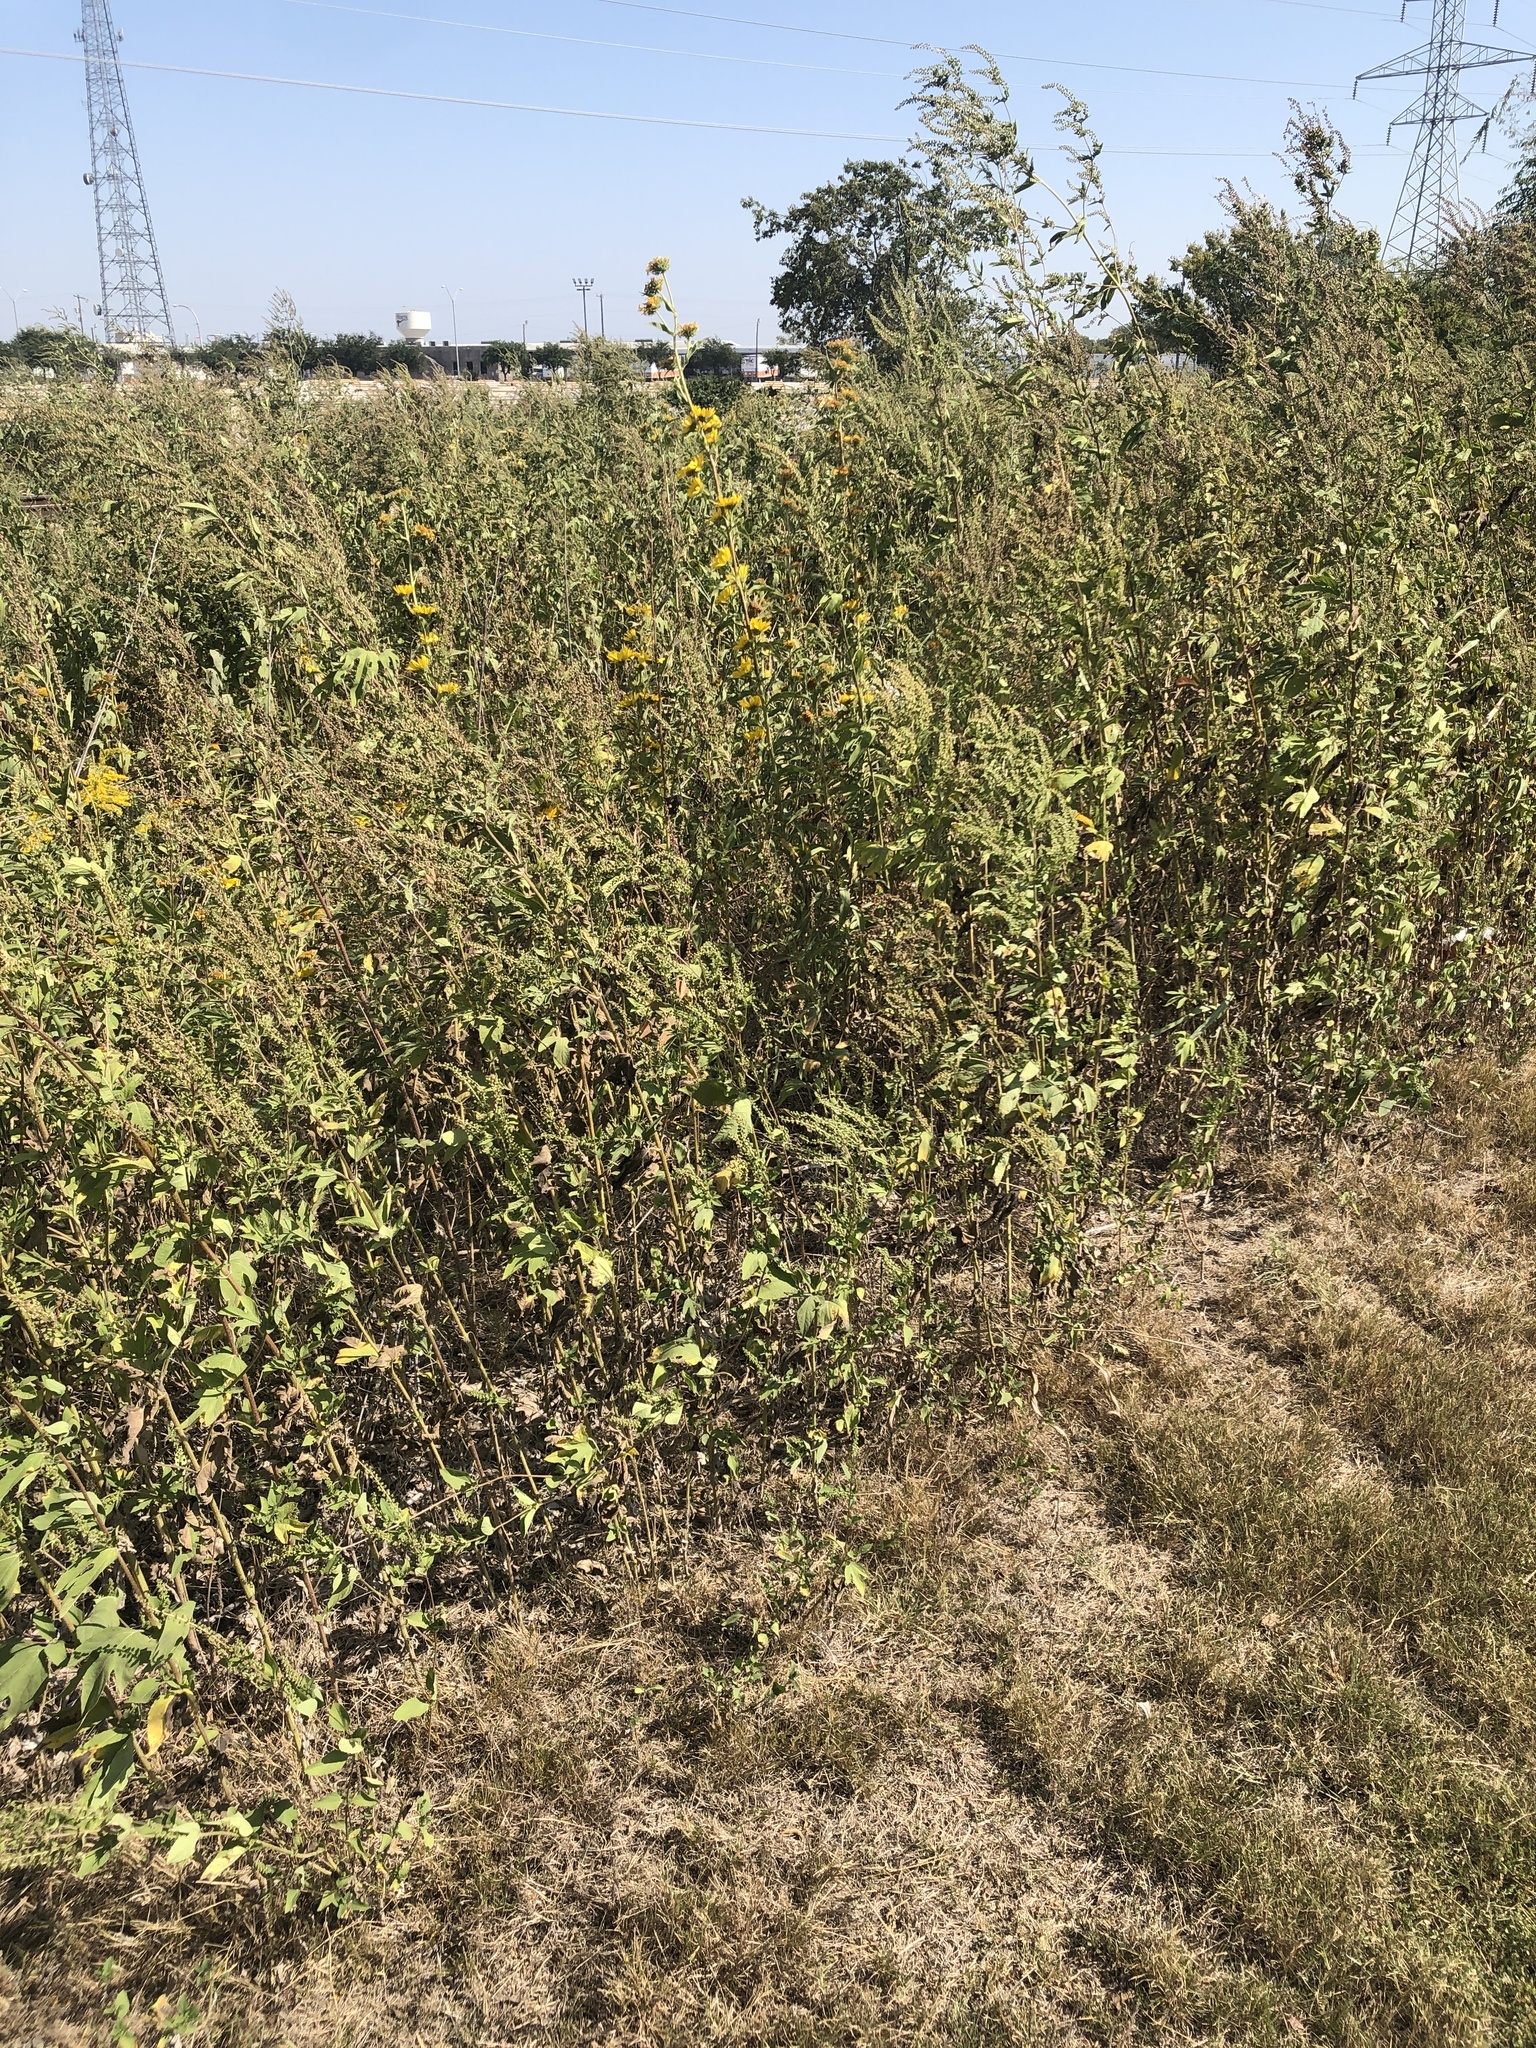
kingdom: Plantae
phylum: Tracheophyta
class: Magnoliopsida
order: Asterales
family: Asteraceae
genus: Ambrosia
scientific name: Ambrosia trifida
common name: Giant ragweed
